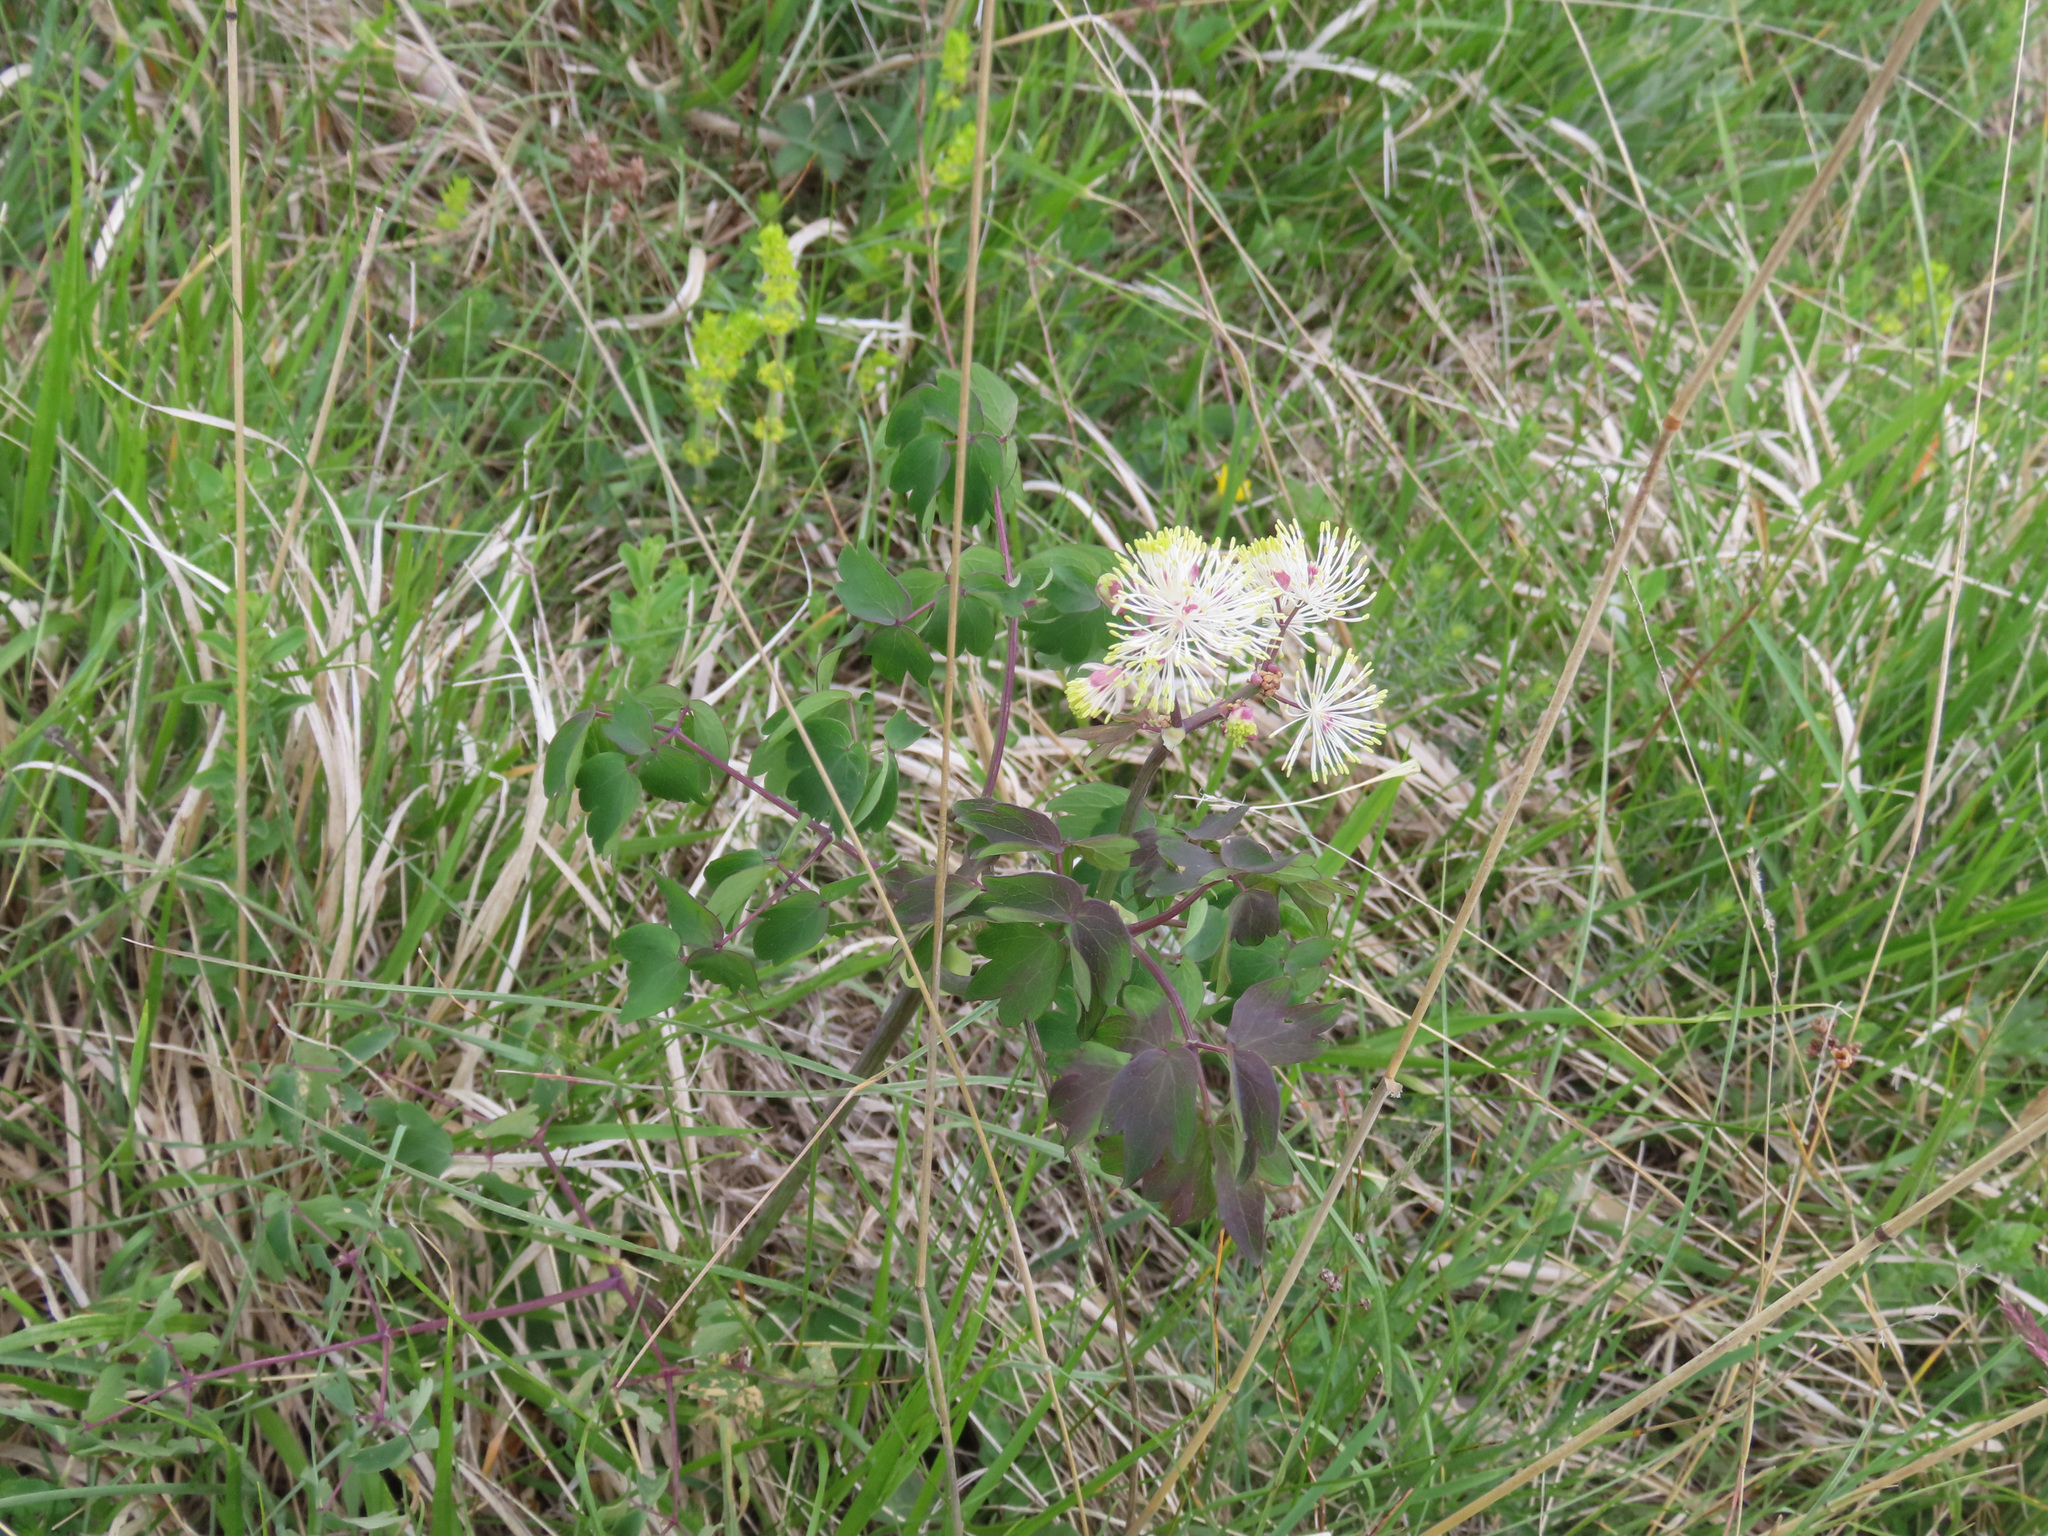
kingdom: Plantae
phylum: Tracheophyta
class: Magnoliopsida
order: Ranunculales
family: Ranunculaceae
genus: Thalictrum
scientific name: Thalictrum aquilegiifolium
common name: French meadow-rue
